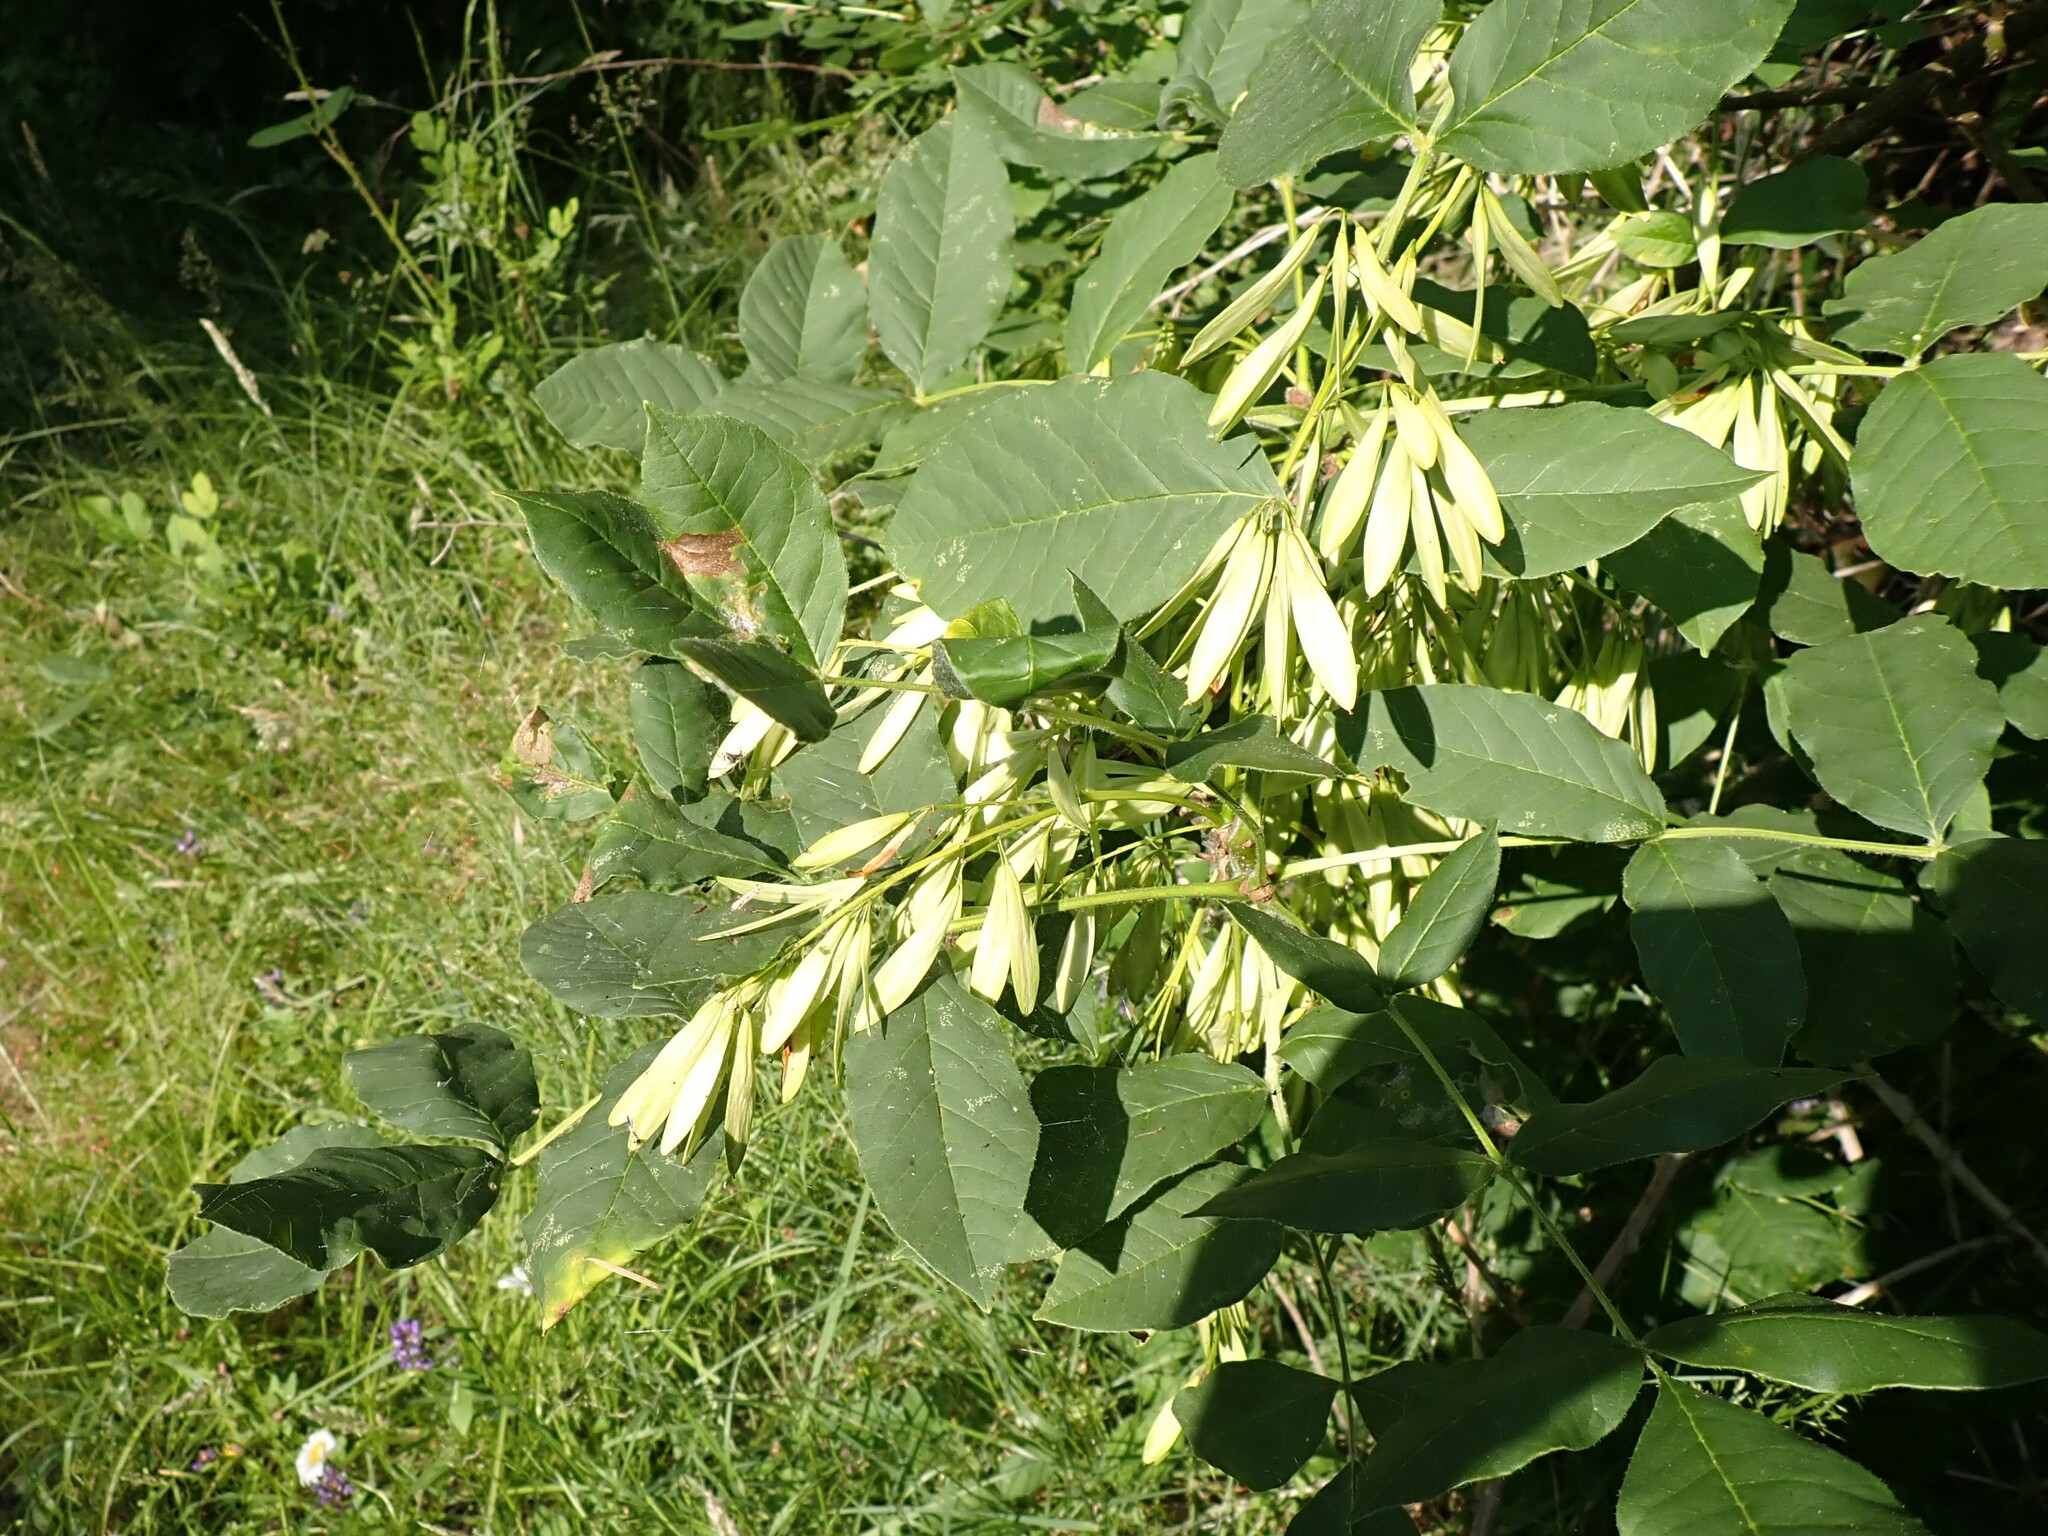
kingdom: Plantae
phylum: Tracheophyta
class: Magnoliopsida
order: Lamiales
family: Oleaceae
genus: Fraxinus
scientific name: Fraxinus latifolia
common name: Oregon ash
